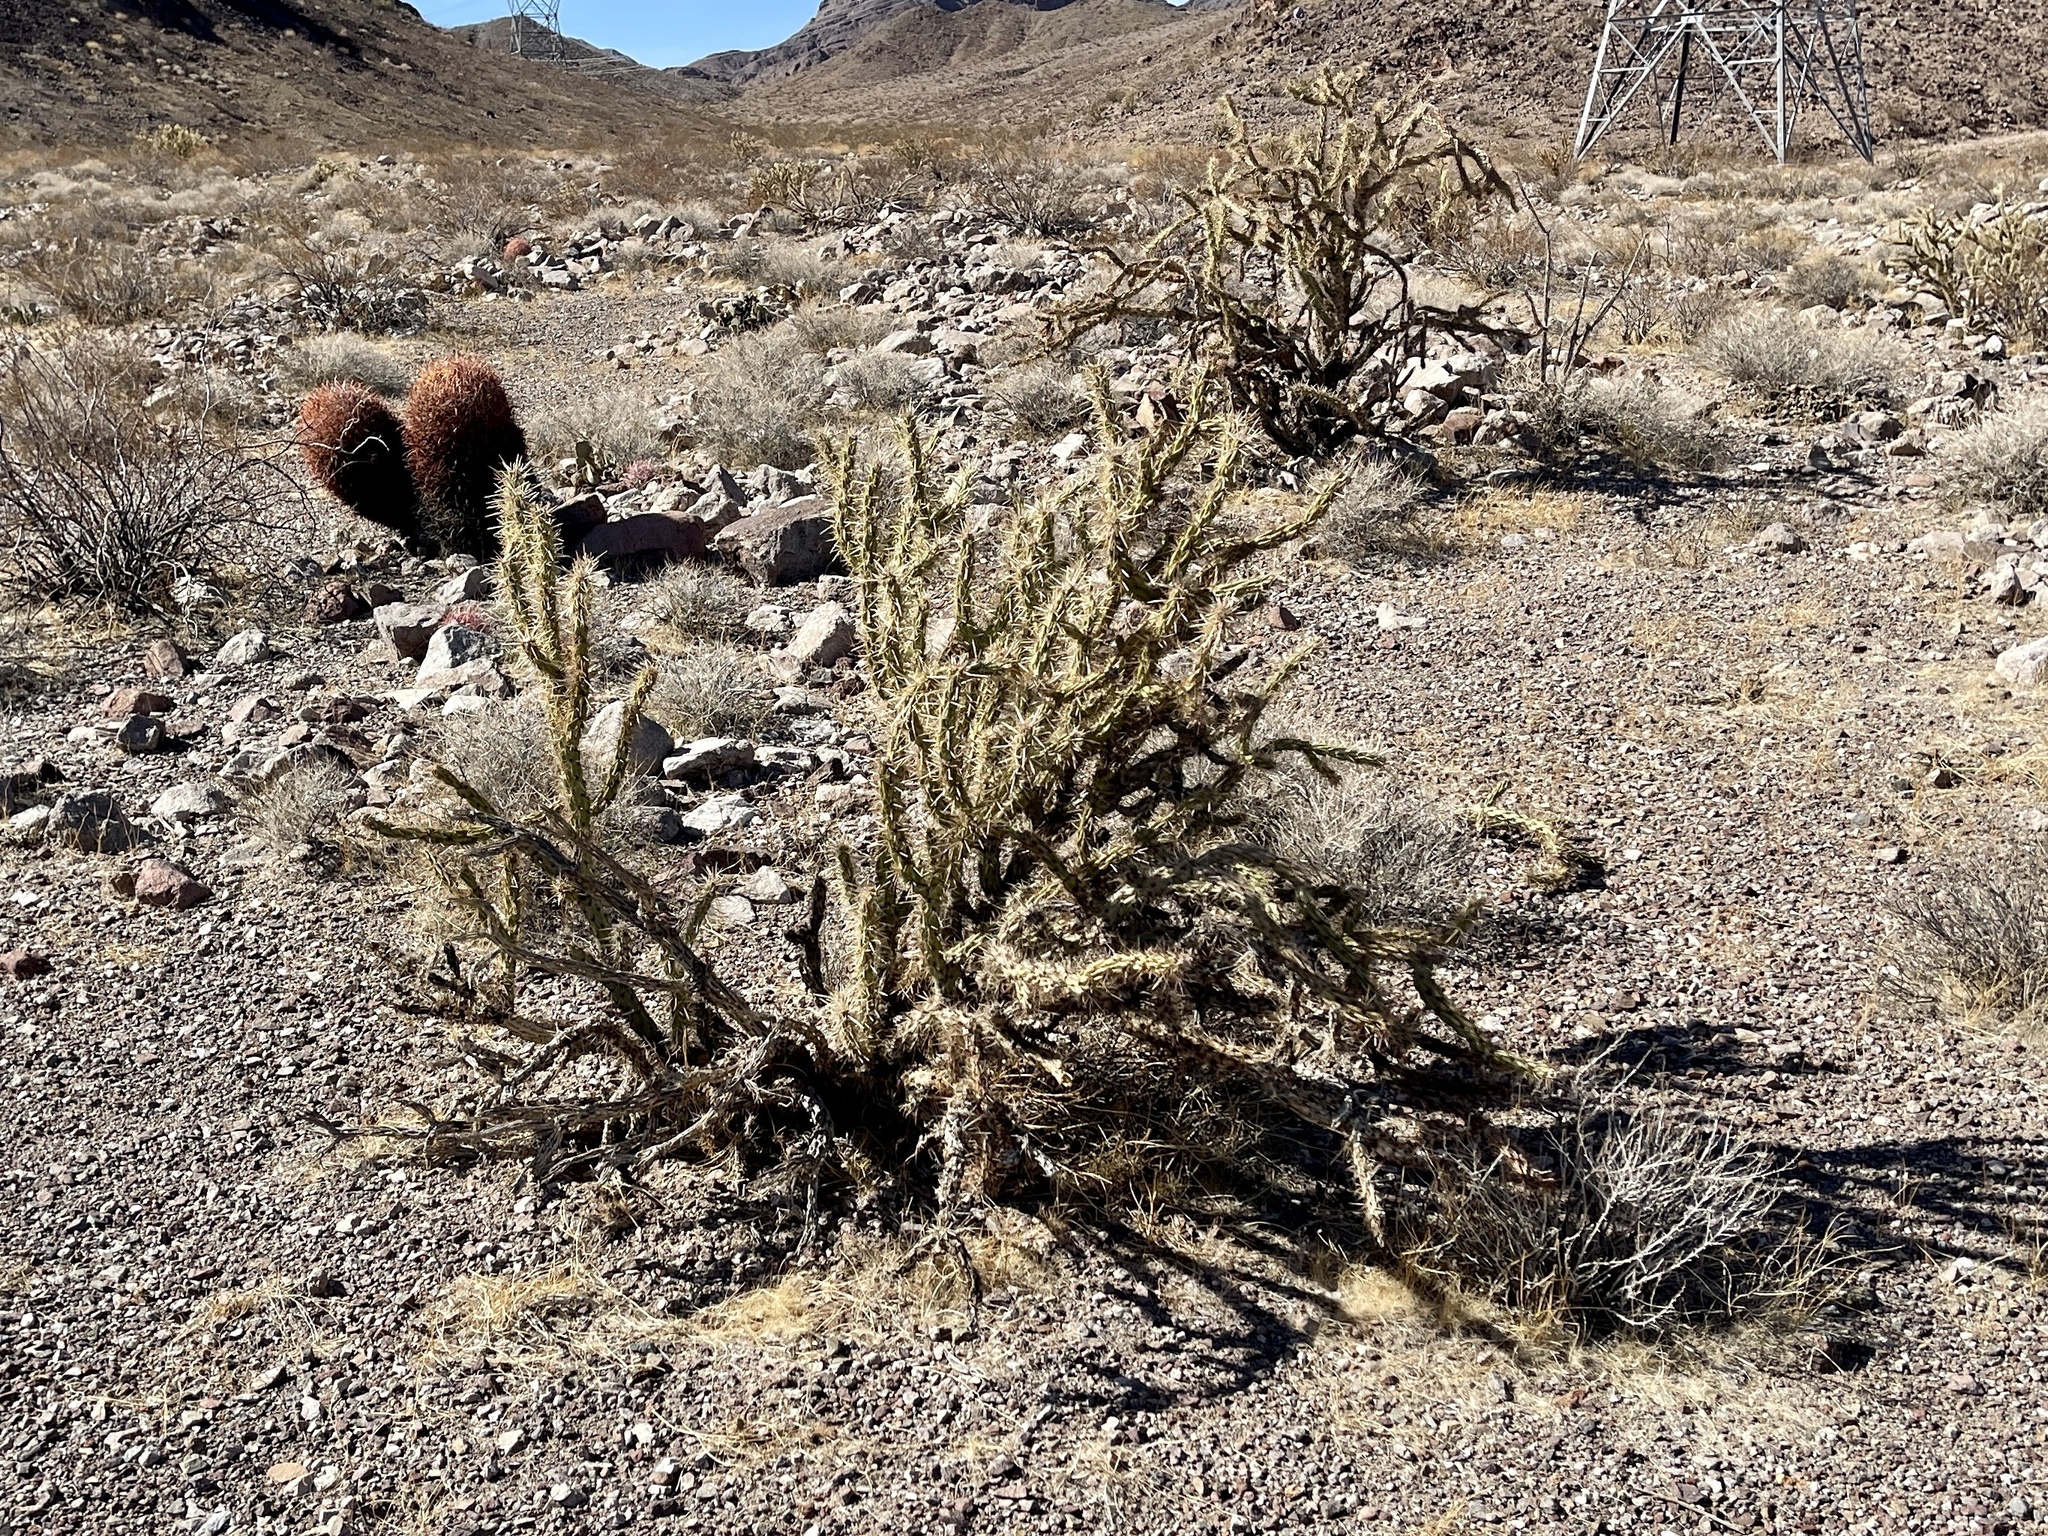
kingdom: Plantae
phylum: Tracheophyta
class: Magnoliopsida
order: Caryophyllales
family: Cactaceae
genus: Cylindropuntia
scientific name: Cylindropuntia acanthocarpa
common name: Buckhorn cholla
